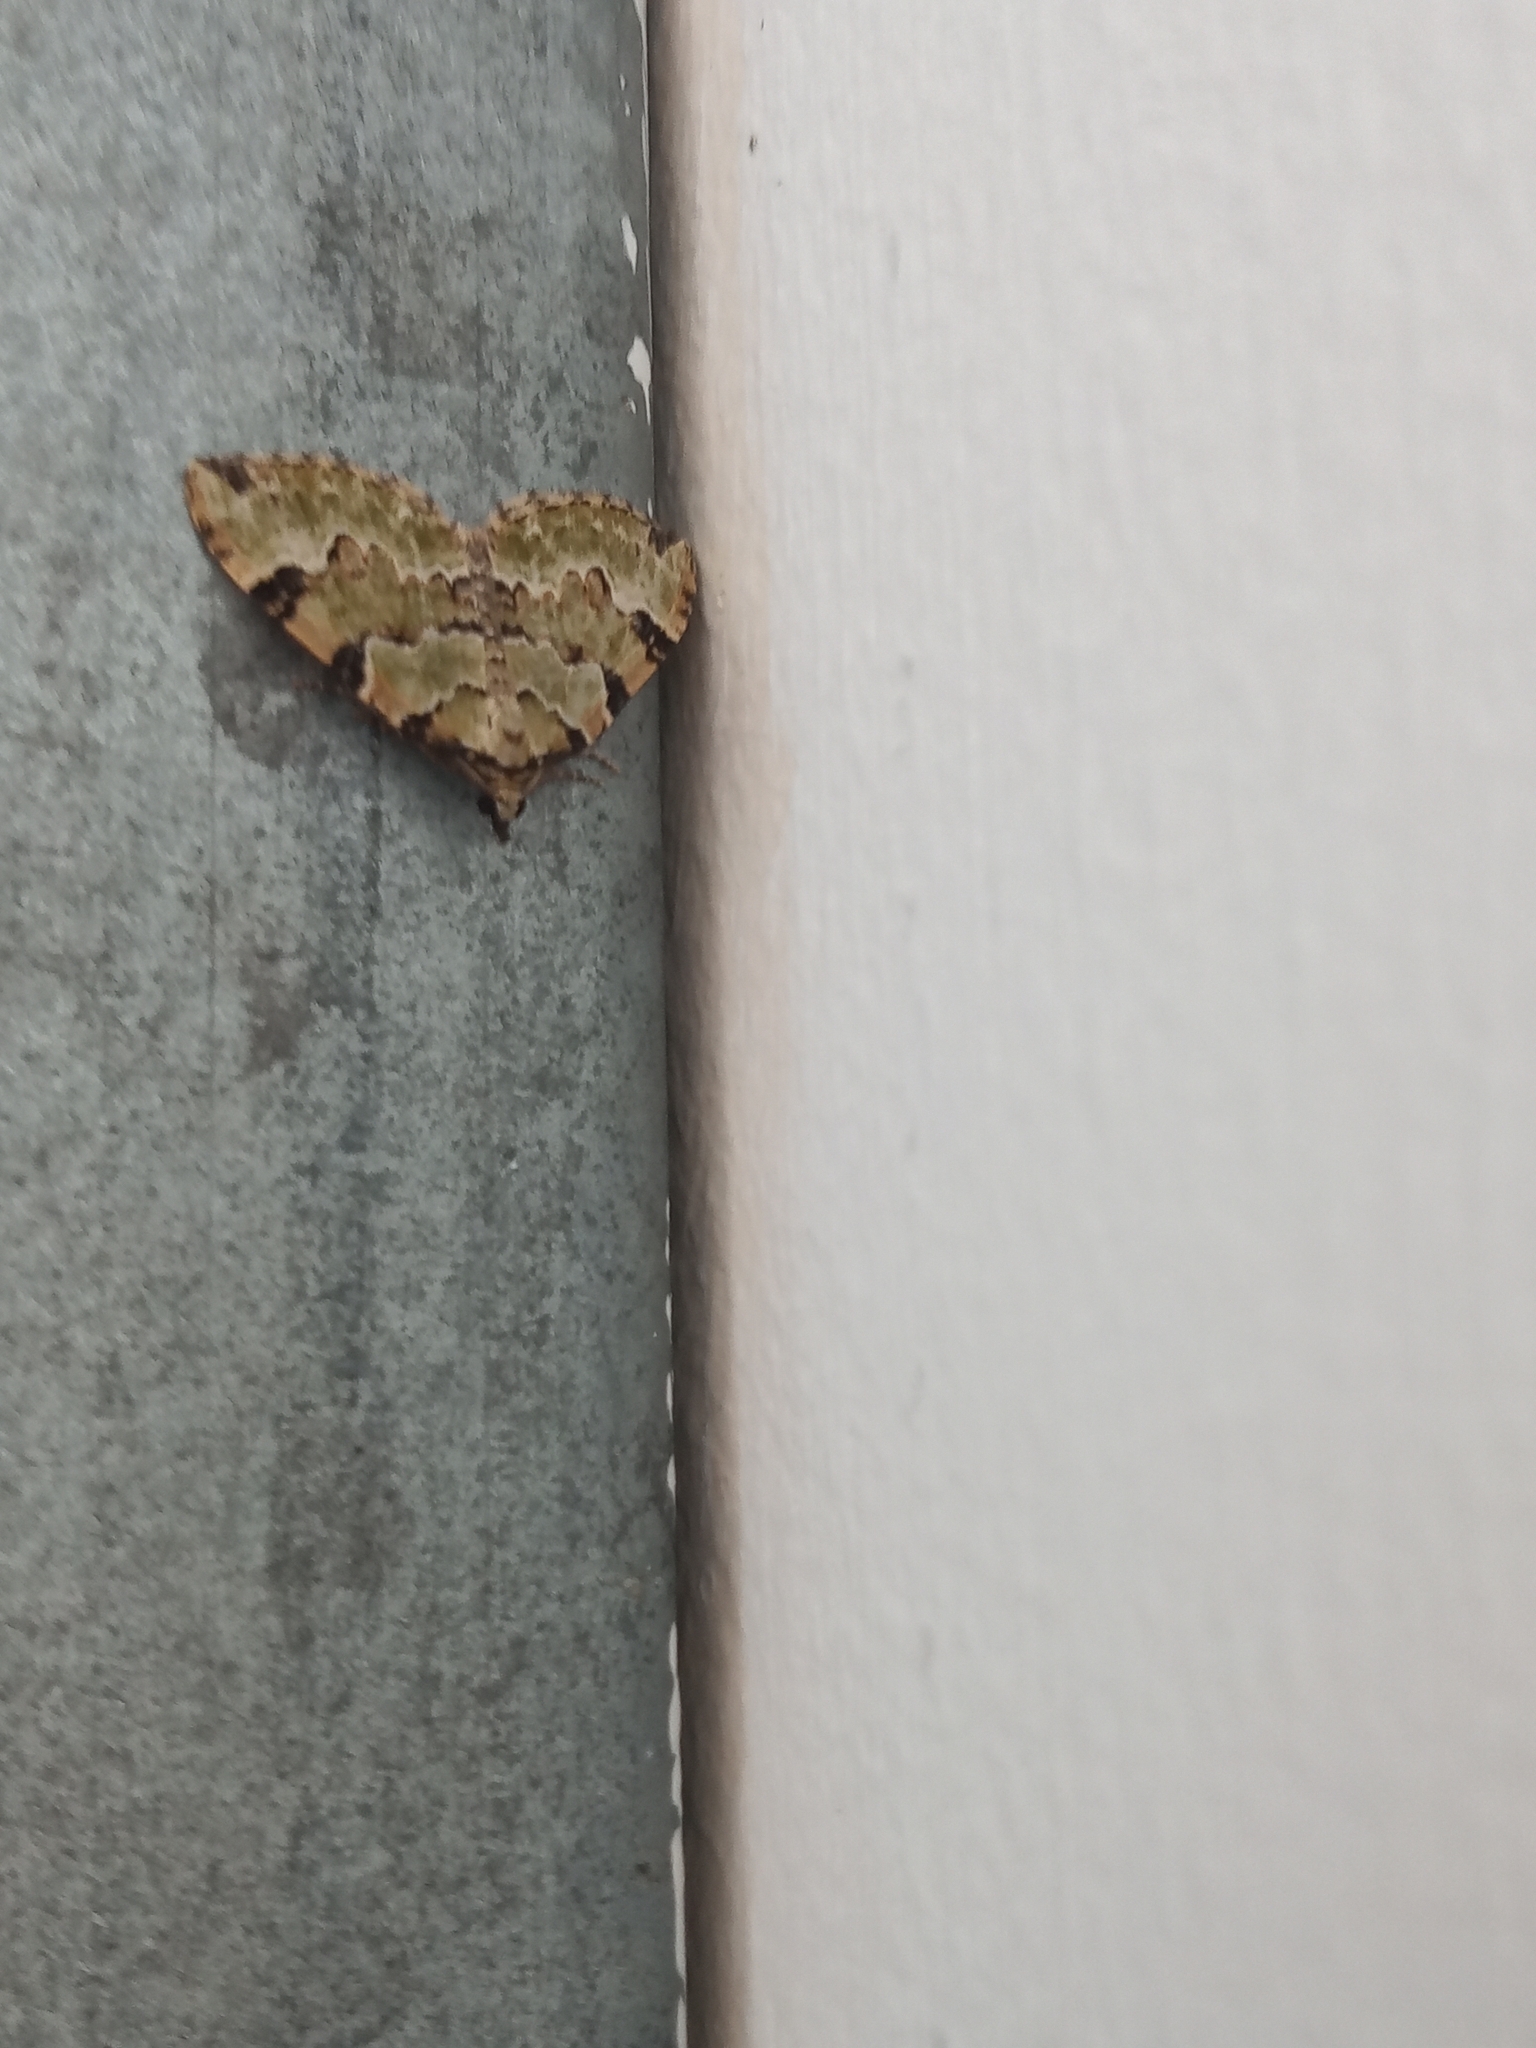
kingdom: Animalia
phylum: Arthropoda
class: Insecta
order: Lepidoptera
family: Geometridae
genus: Colostygia
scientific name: Colostygia pectinataria
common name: Green carpet
